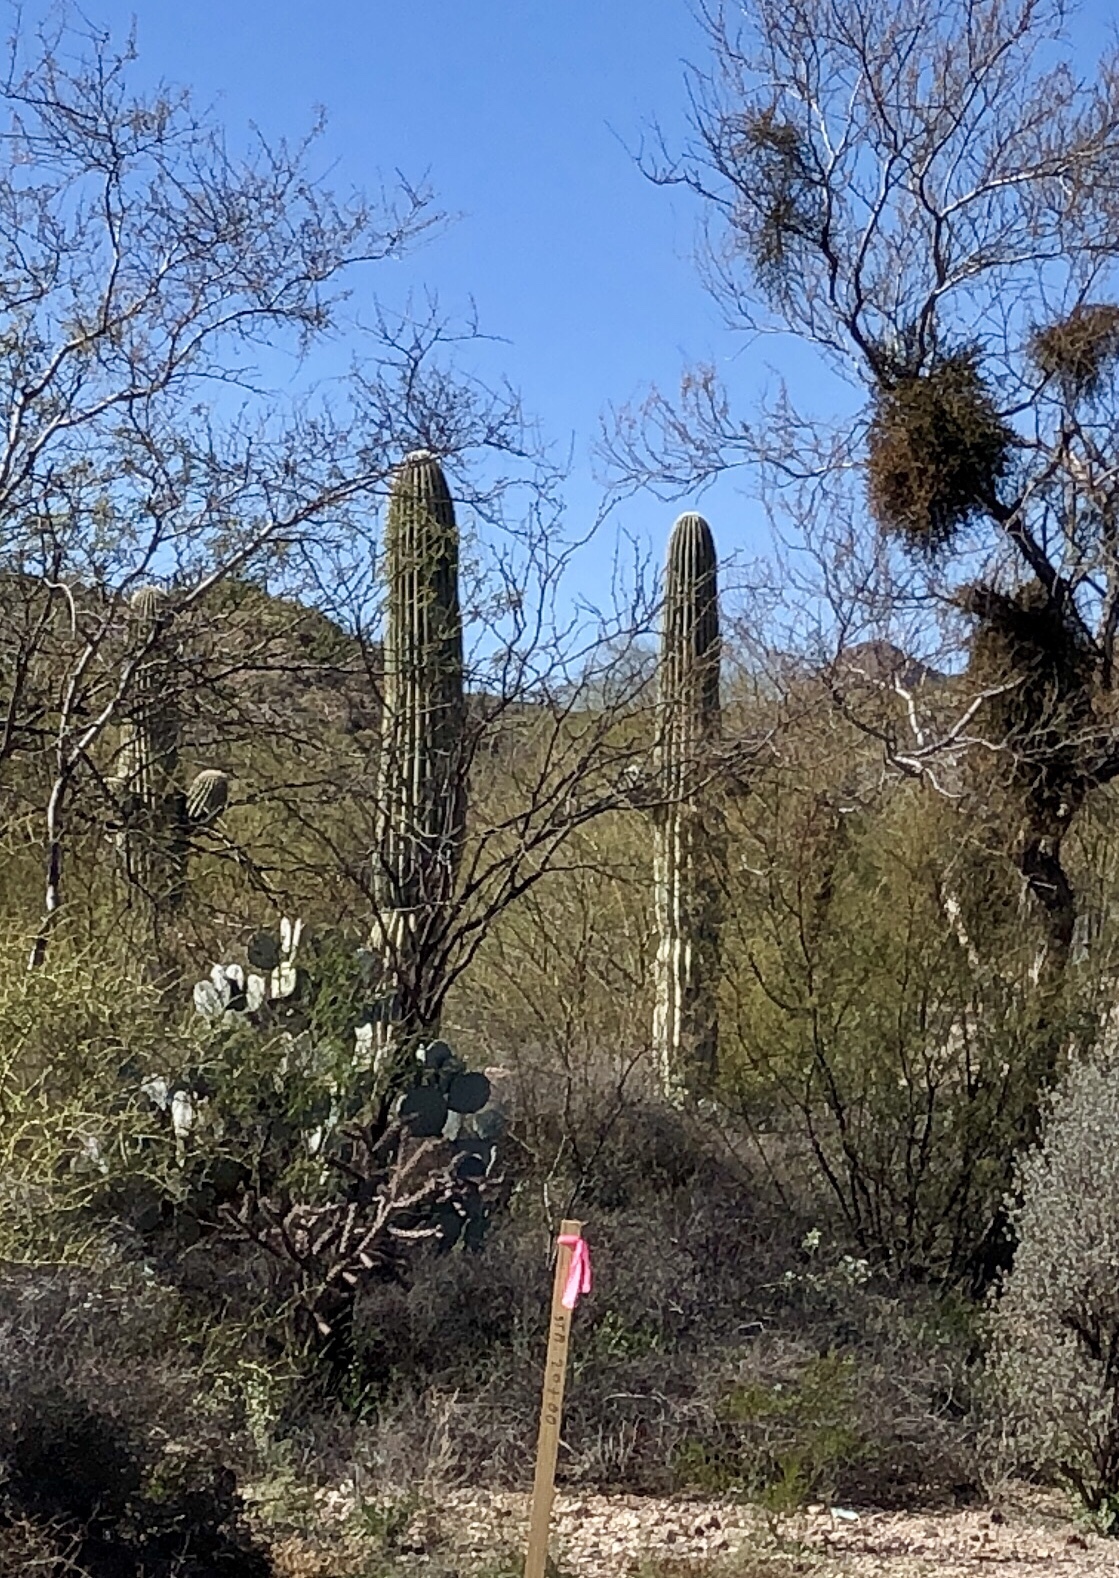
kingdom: Plantae
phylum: Tracheophyta
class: Magnoliopsida
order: Caryophyllales
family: Cactaceae
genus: Carnegiea
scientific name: Carnegiea gigantea
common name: Saguaro
